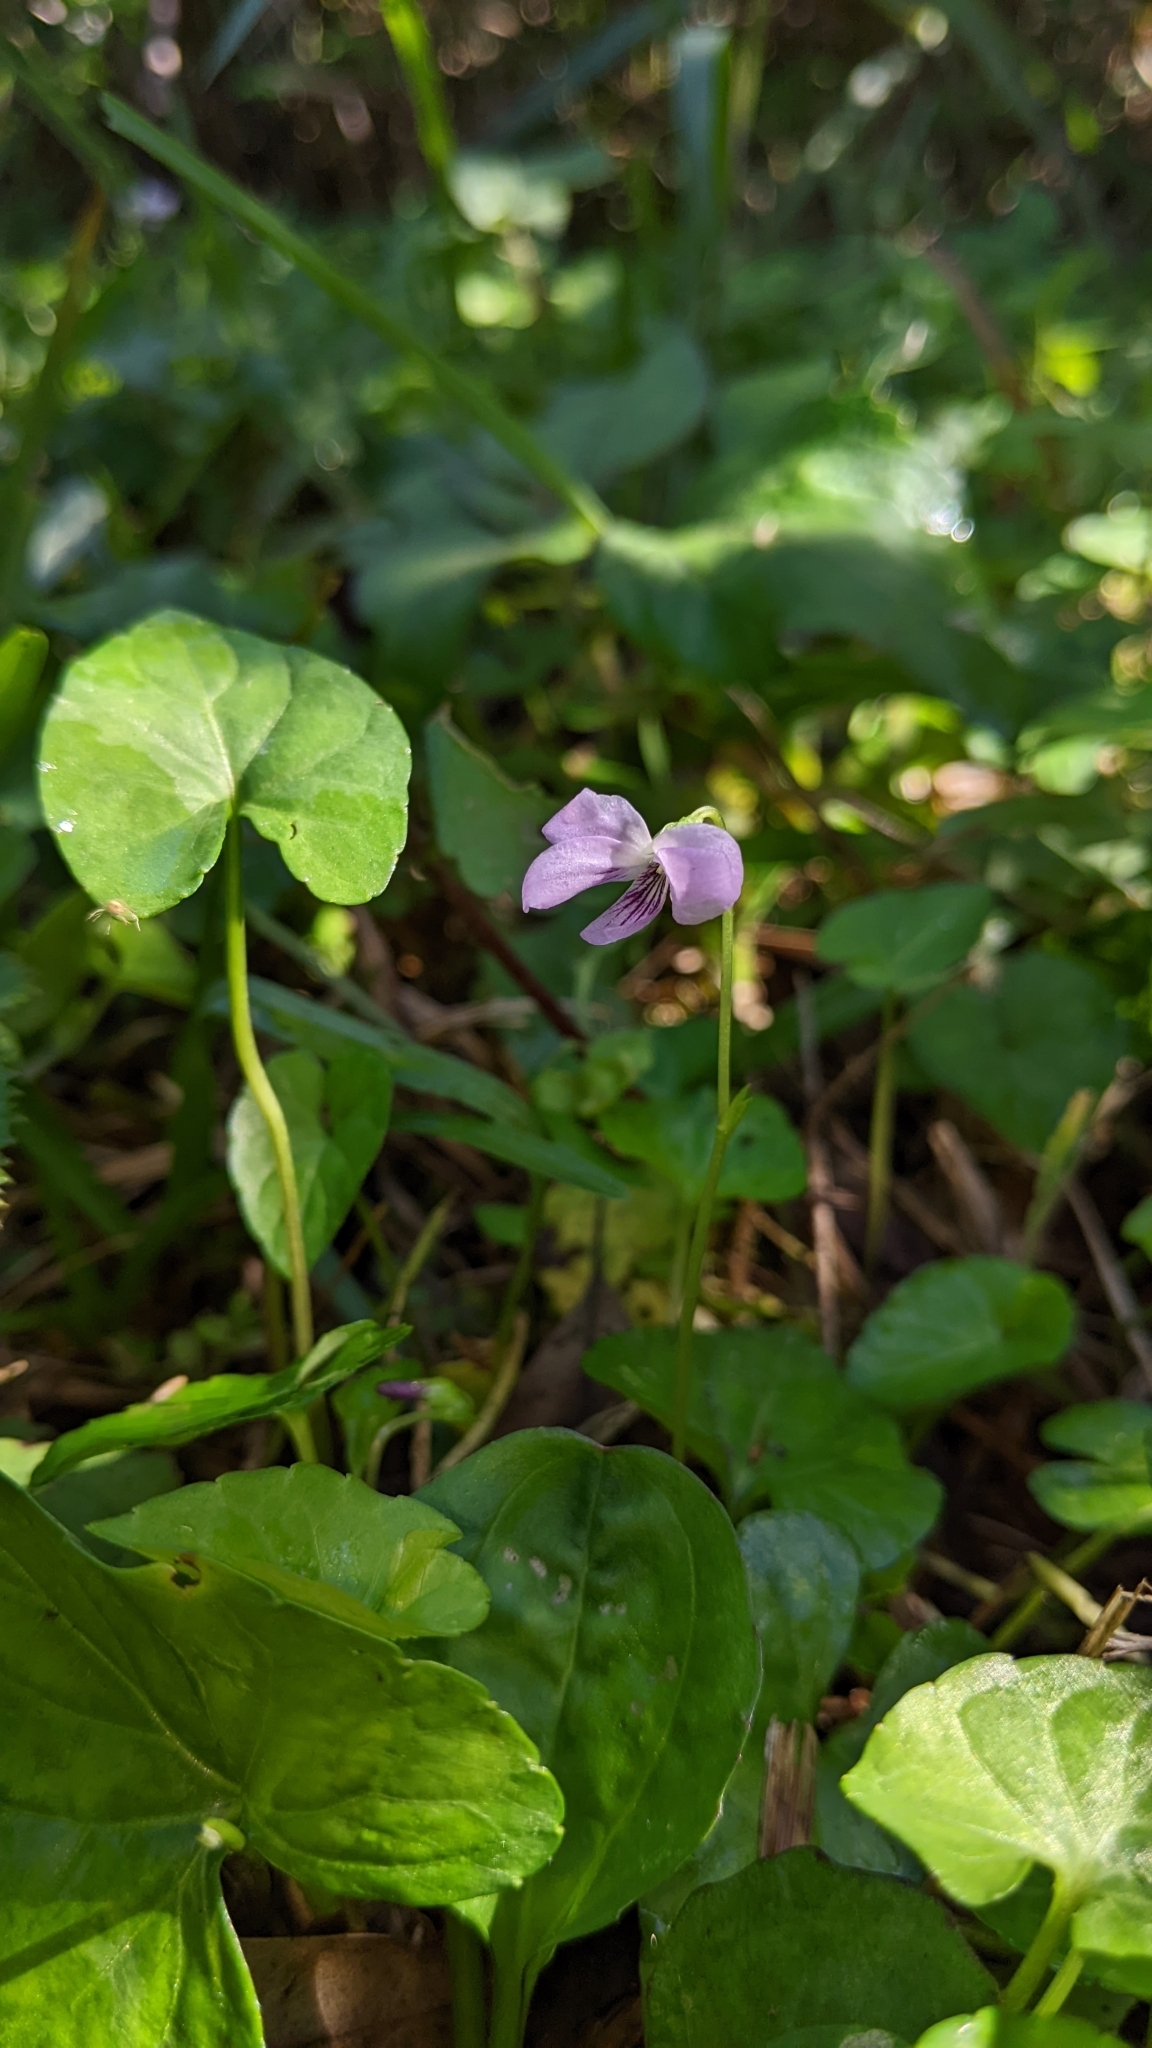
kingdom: Plantae
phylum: Tracheophyta
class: Magnoliopsida
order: Malpighiales
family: Violaceae
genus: Viola
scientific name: Viola
